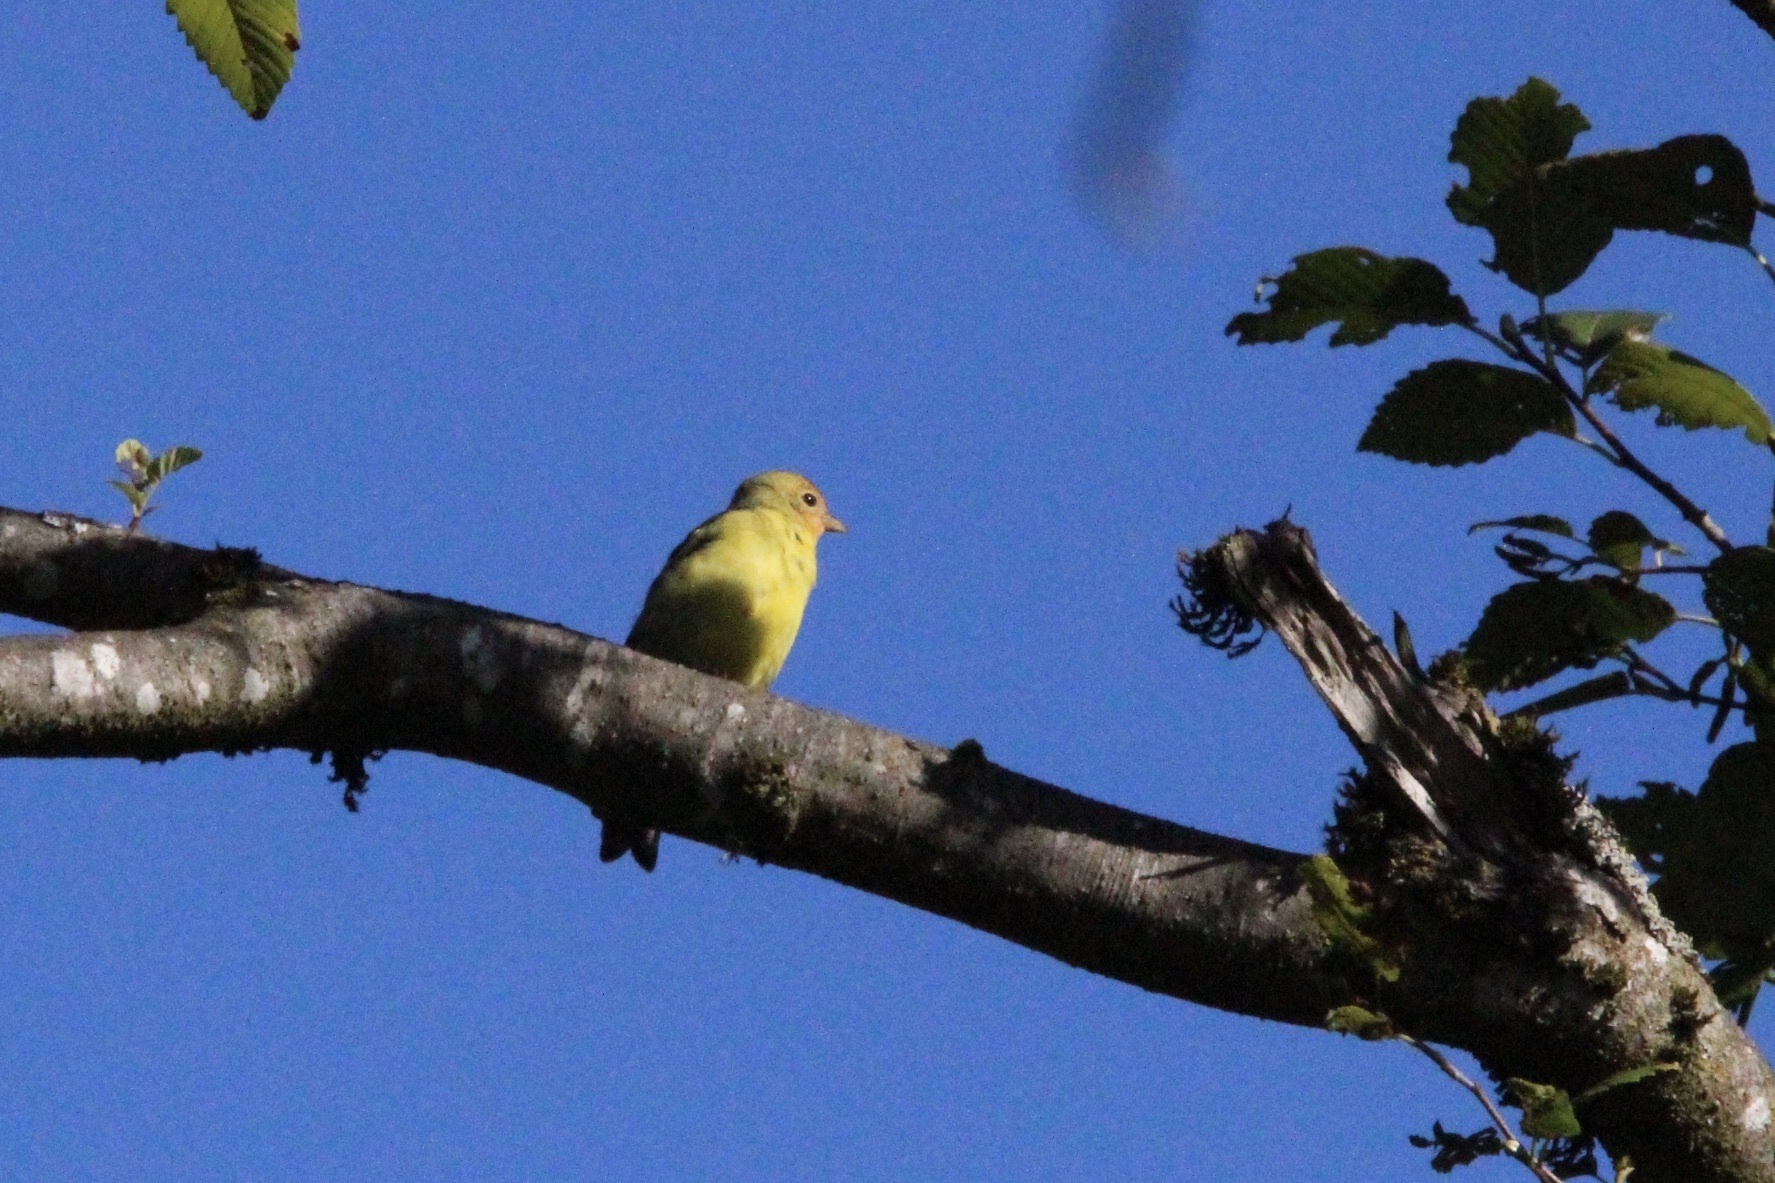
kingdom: Animalia
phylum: Chordata
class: Aves
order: Passeriformes
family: Cardinalidae
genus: Piranga
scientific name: Piranga ludoviciana
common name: Western tanager
